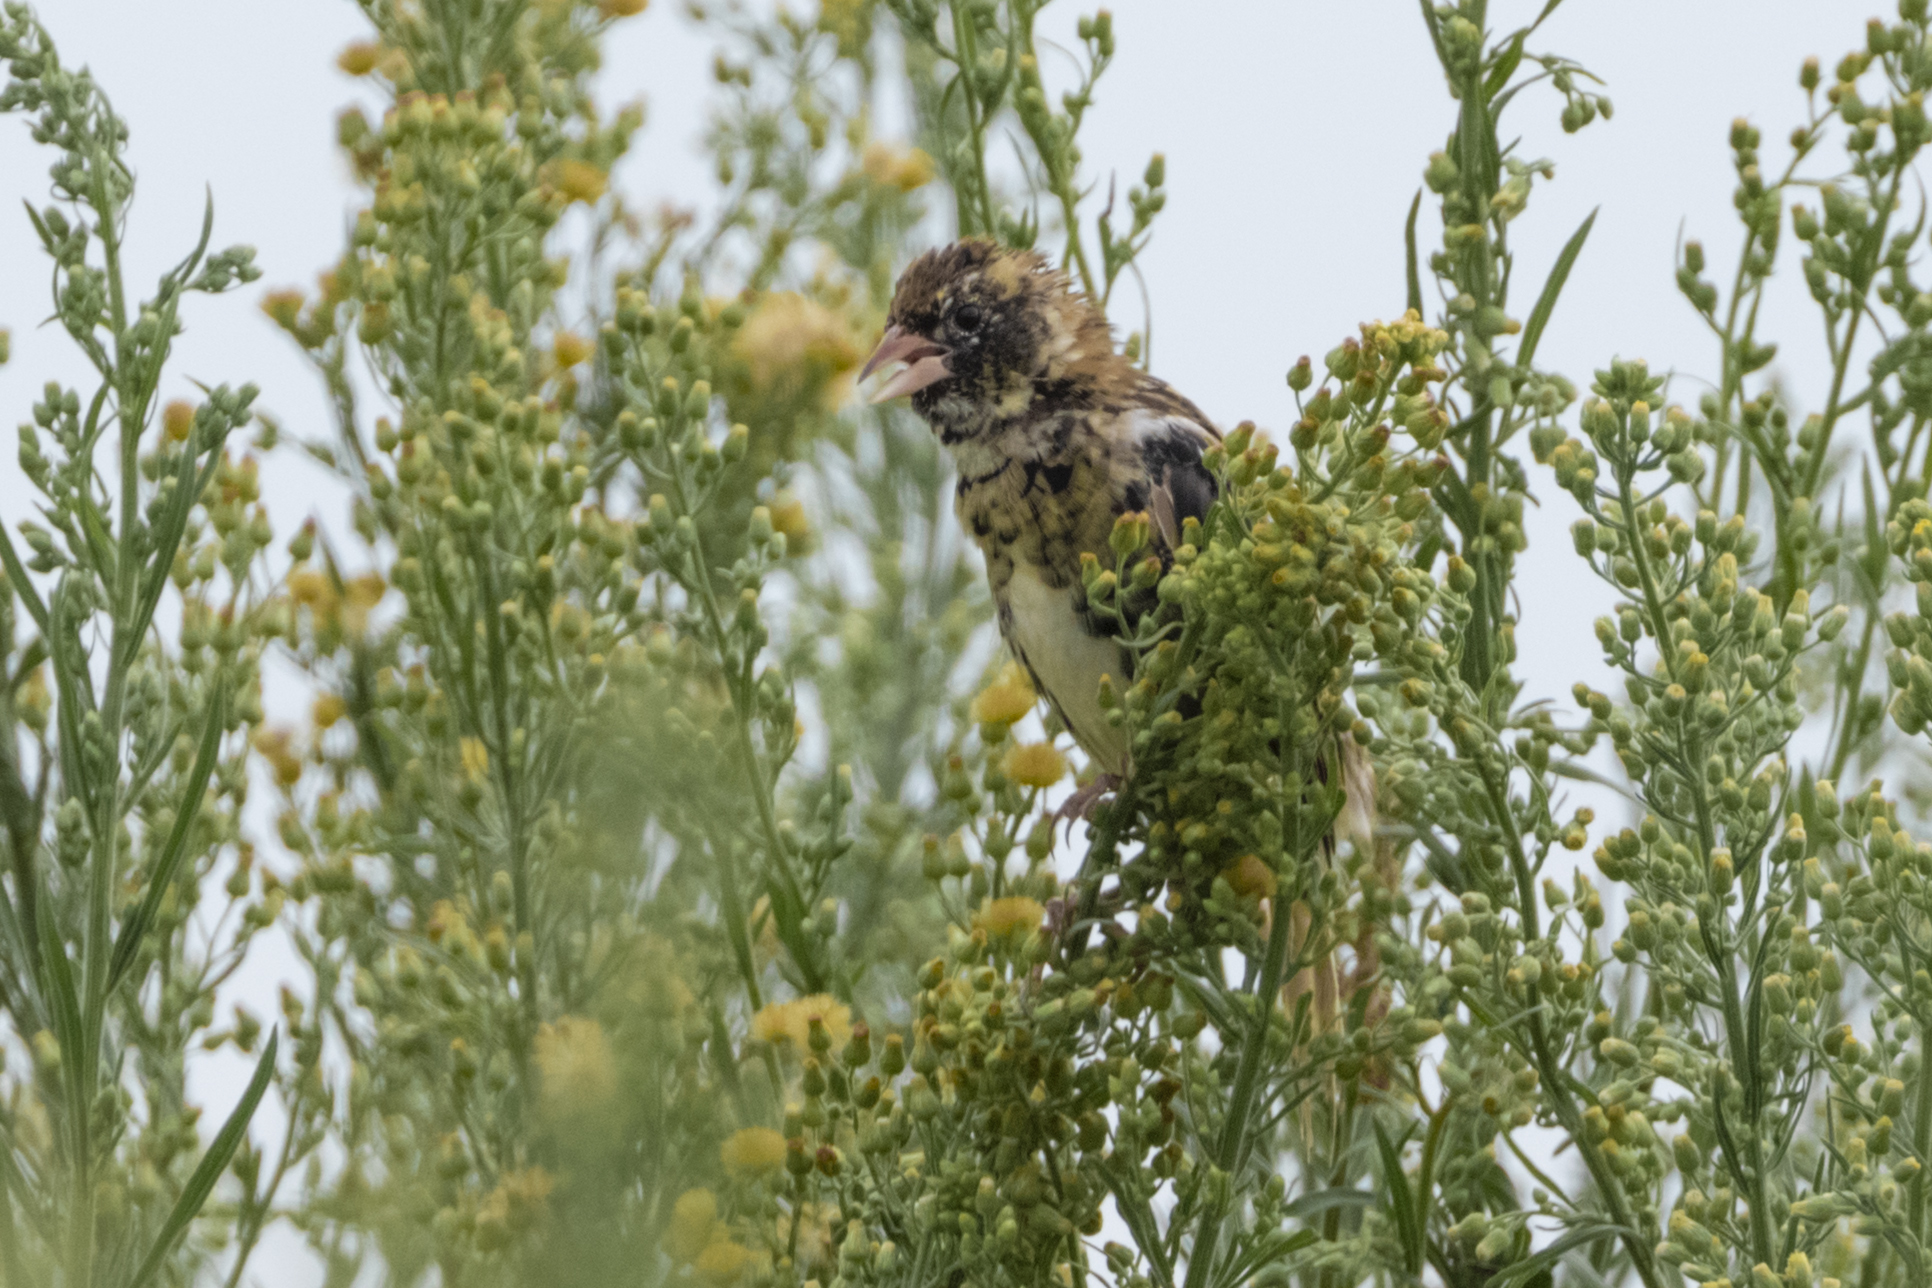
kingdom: Animalia
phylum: Chordata
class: Aves
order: Passeriformes
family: Icteridae
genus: Dolichonyx
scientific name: Dolichonyx oryzivorus
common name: Bobolink
